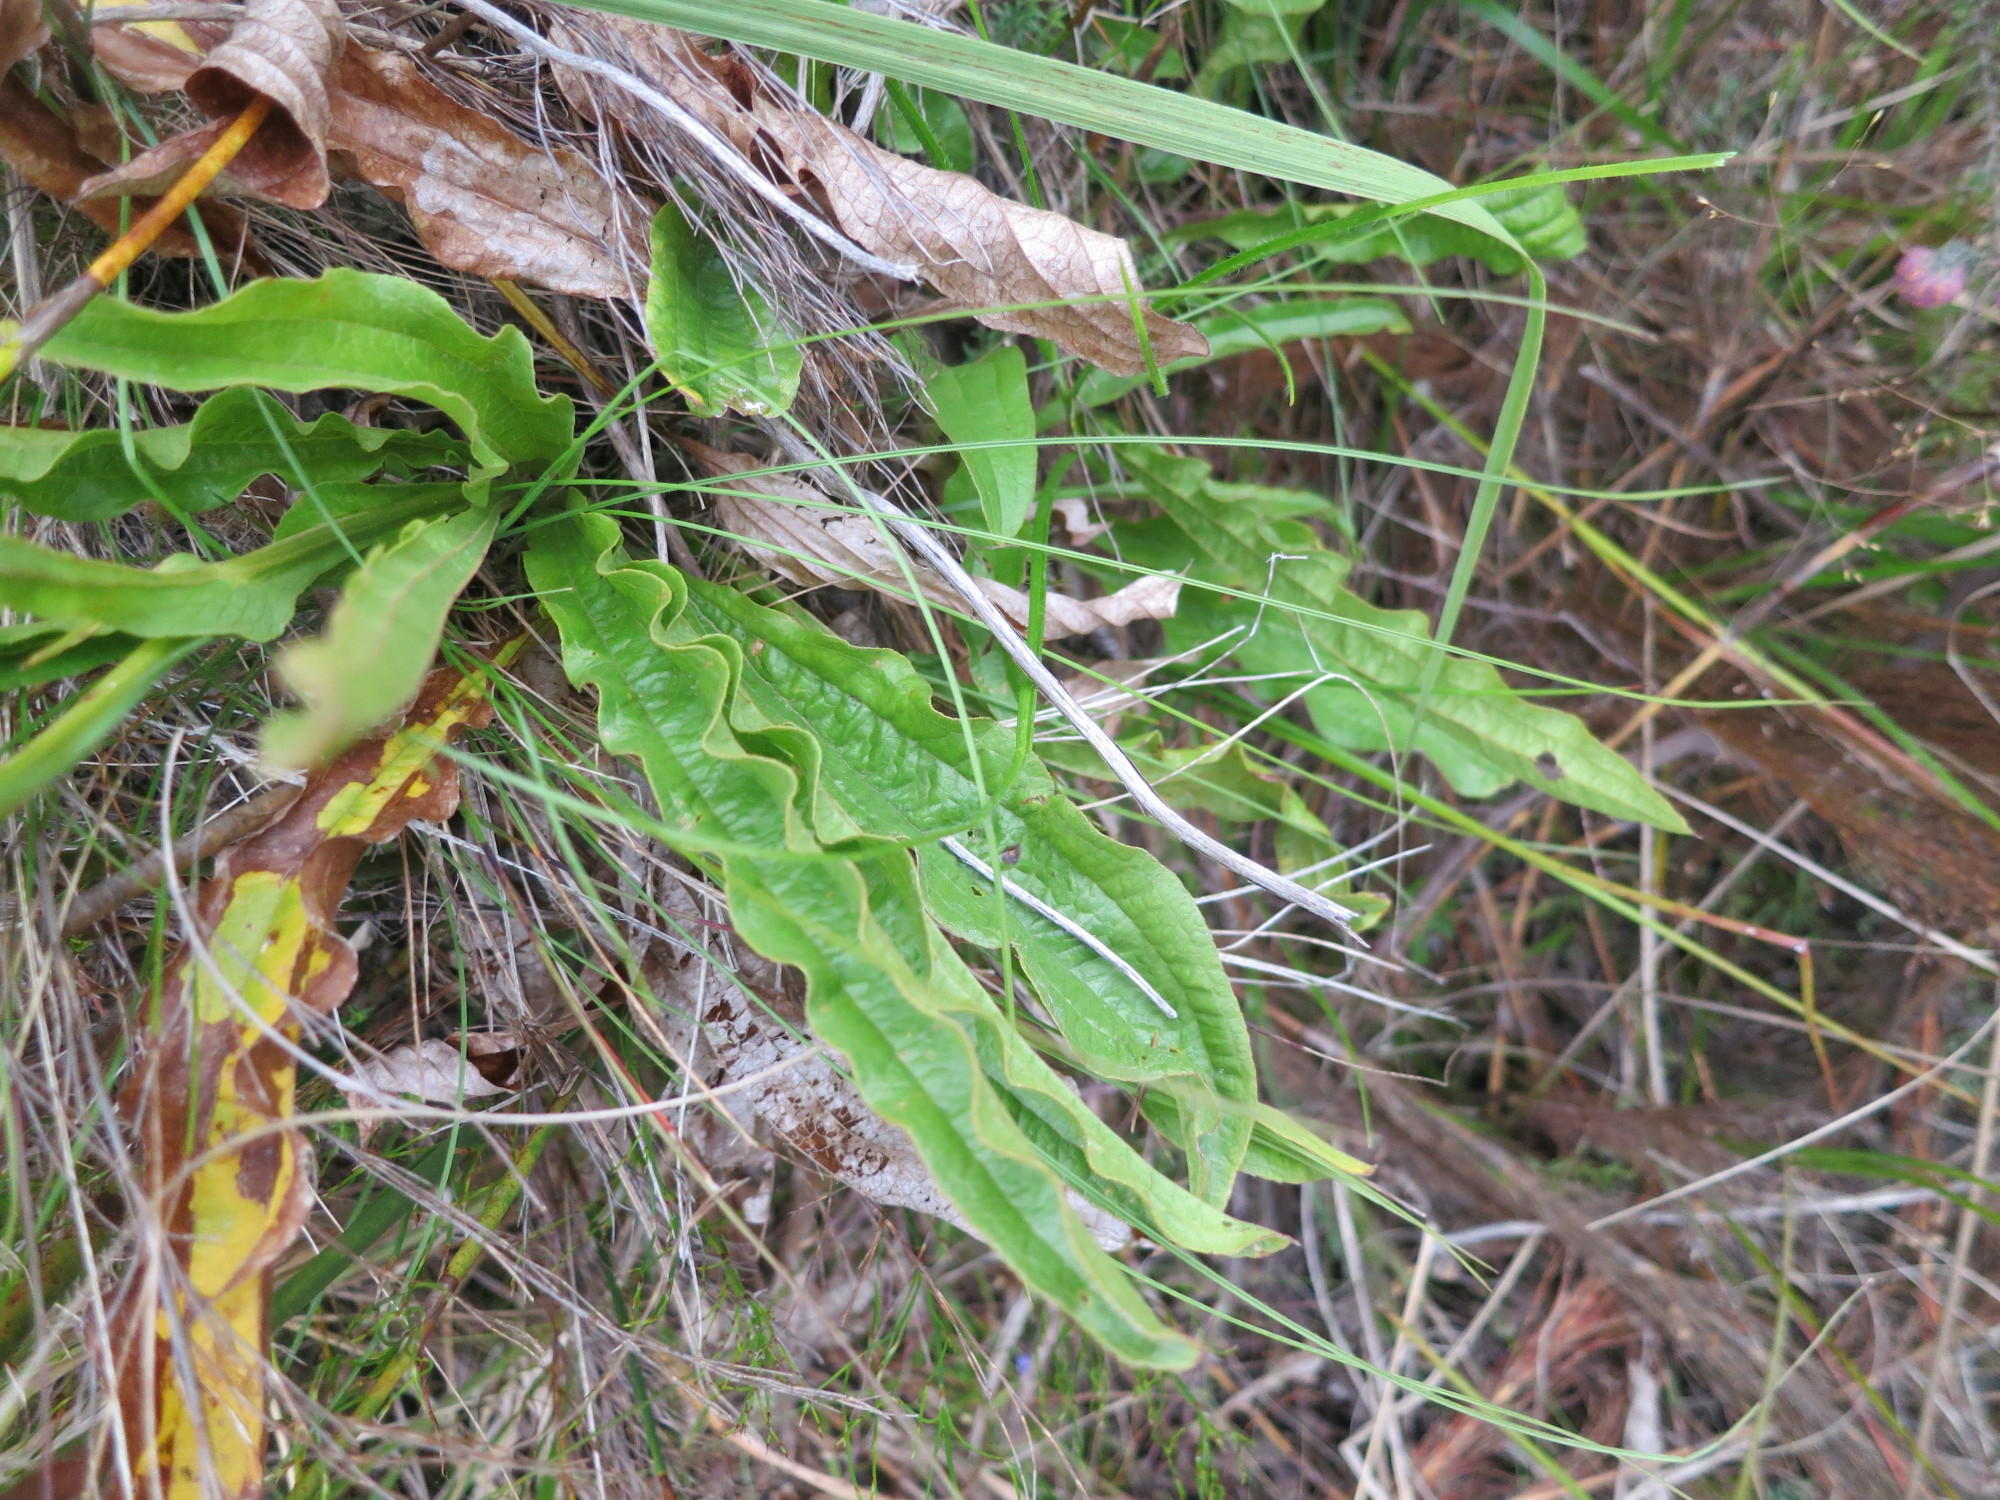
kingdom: Plantae
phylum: Tracheophyta
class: Magnoliopsida
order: Asterales
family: Asteraceae
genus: Helichrysum
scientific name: Helichrysum nudifolium
